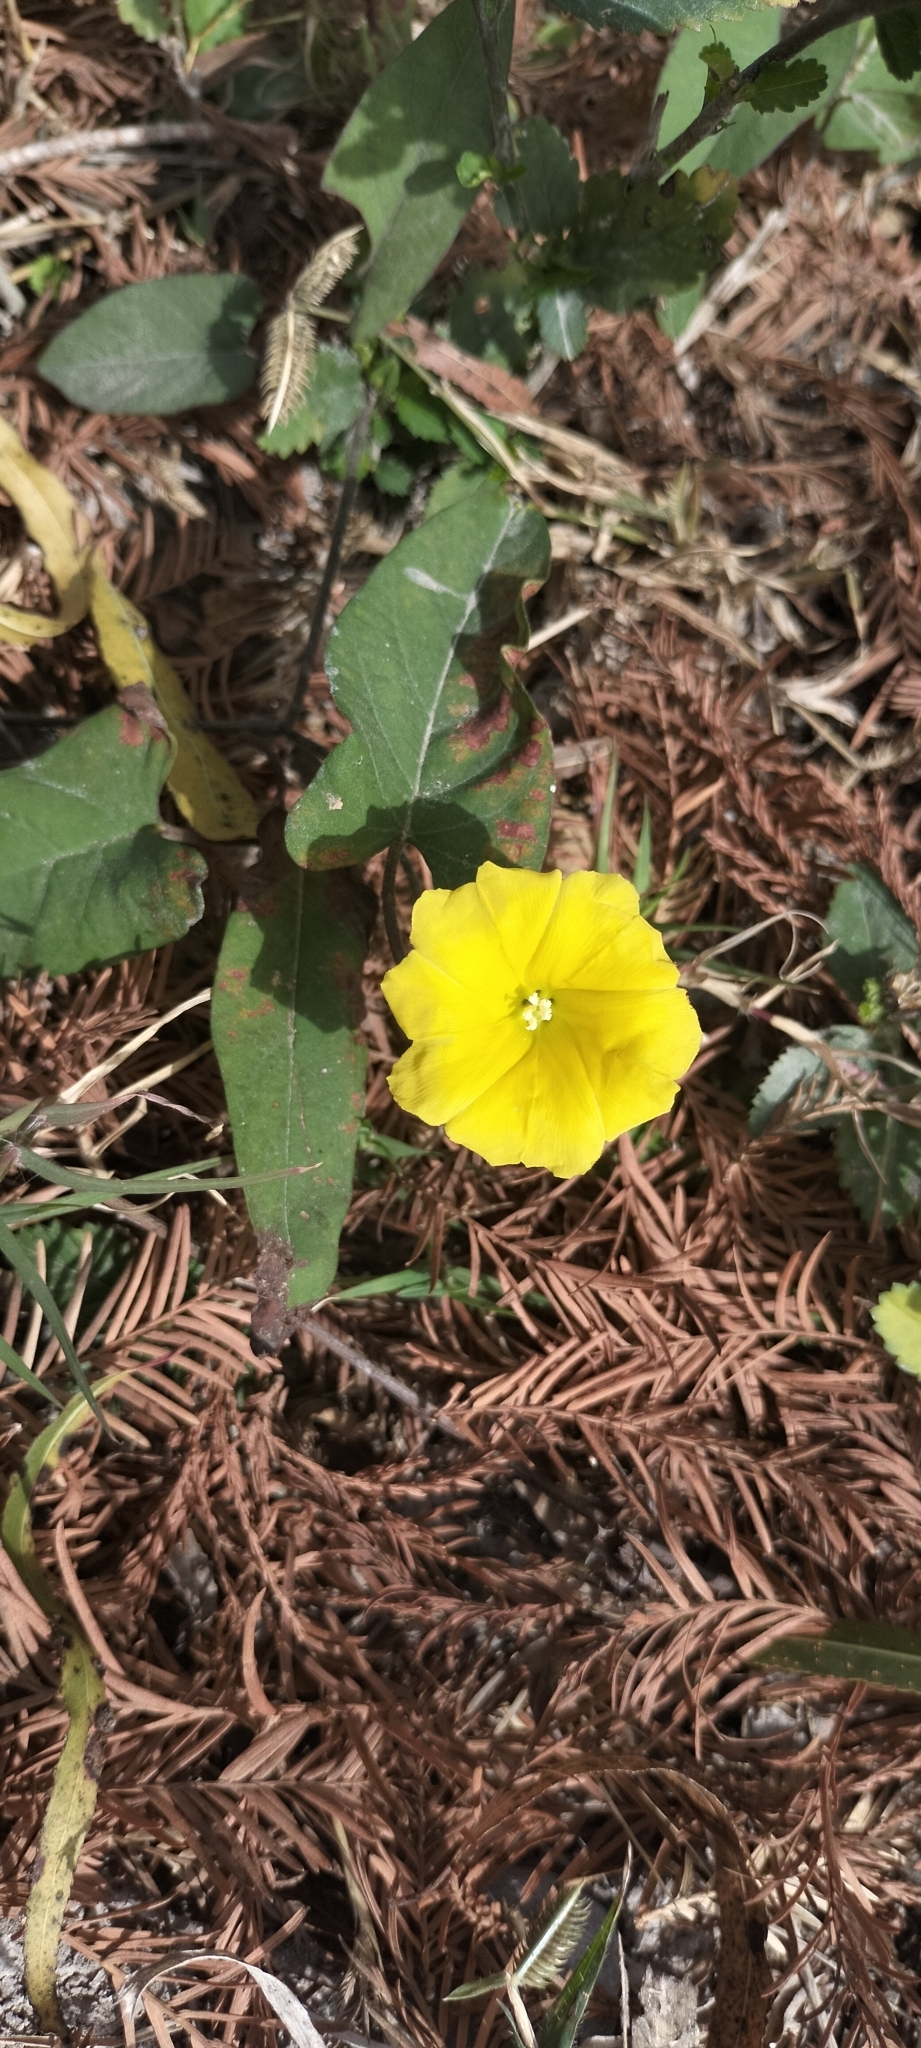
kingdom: Plantae
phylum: Tracheophyta
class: Magnoliopsida
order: Solanales
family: Convolvulaceae
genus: Camonea
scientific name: Camonea umbellata
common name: Hogvine
